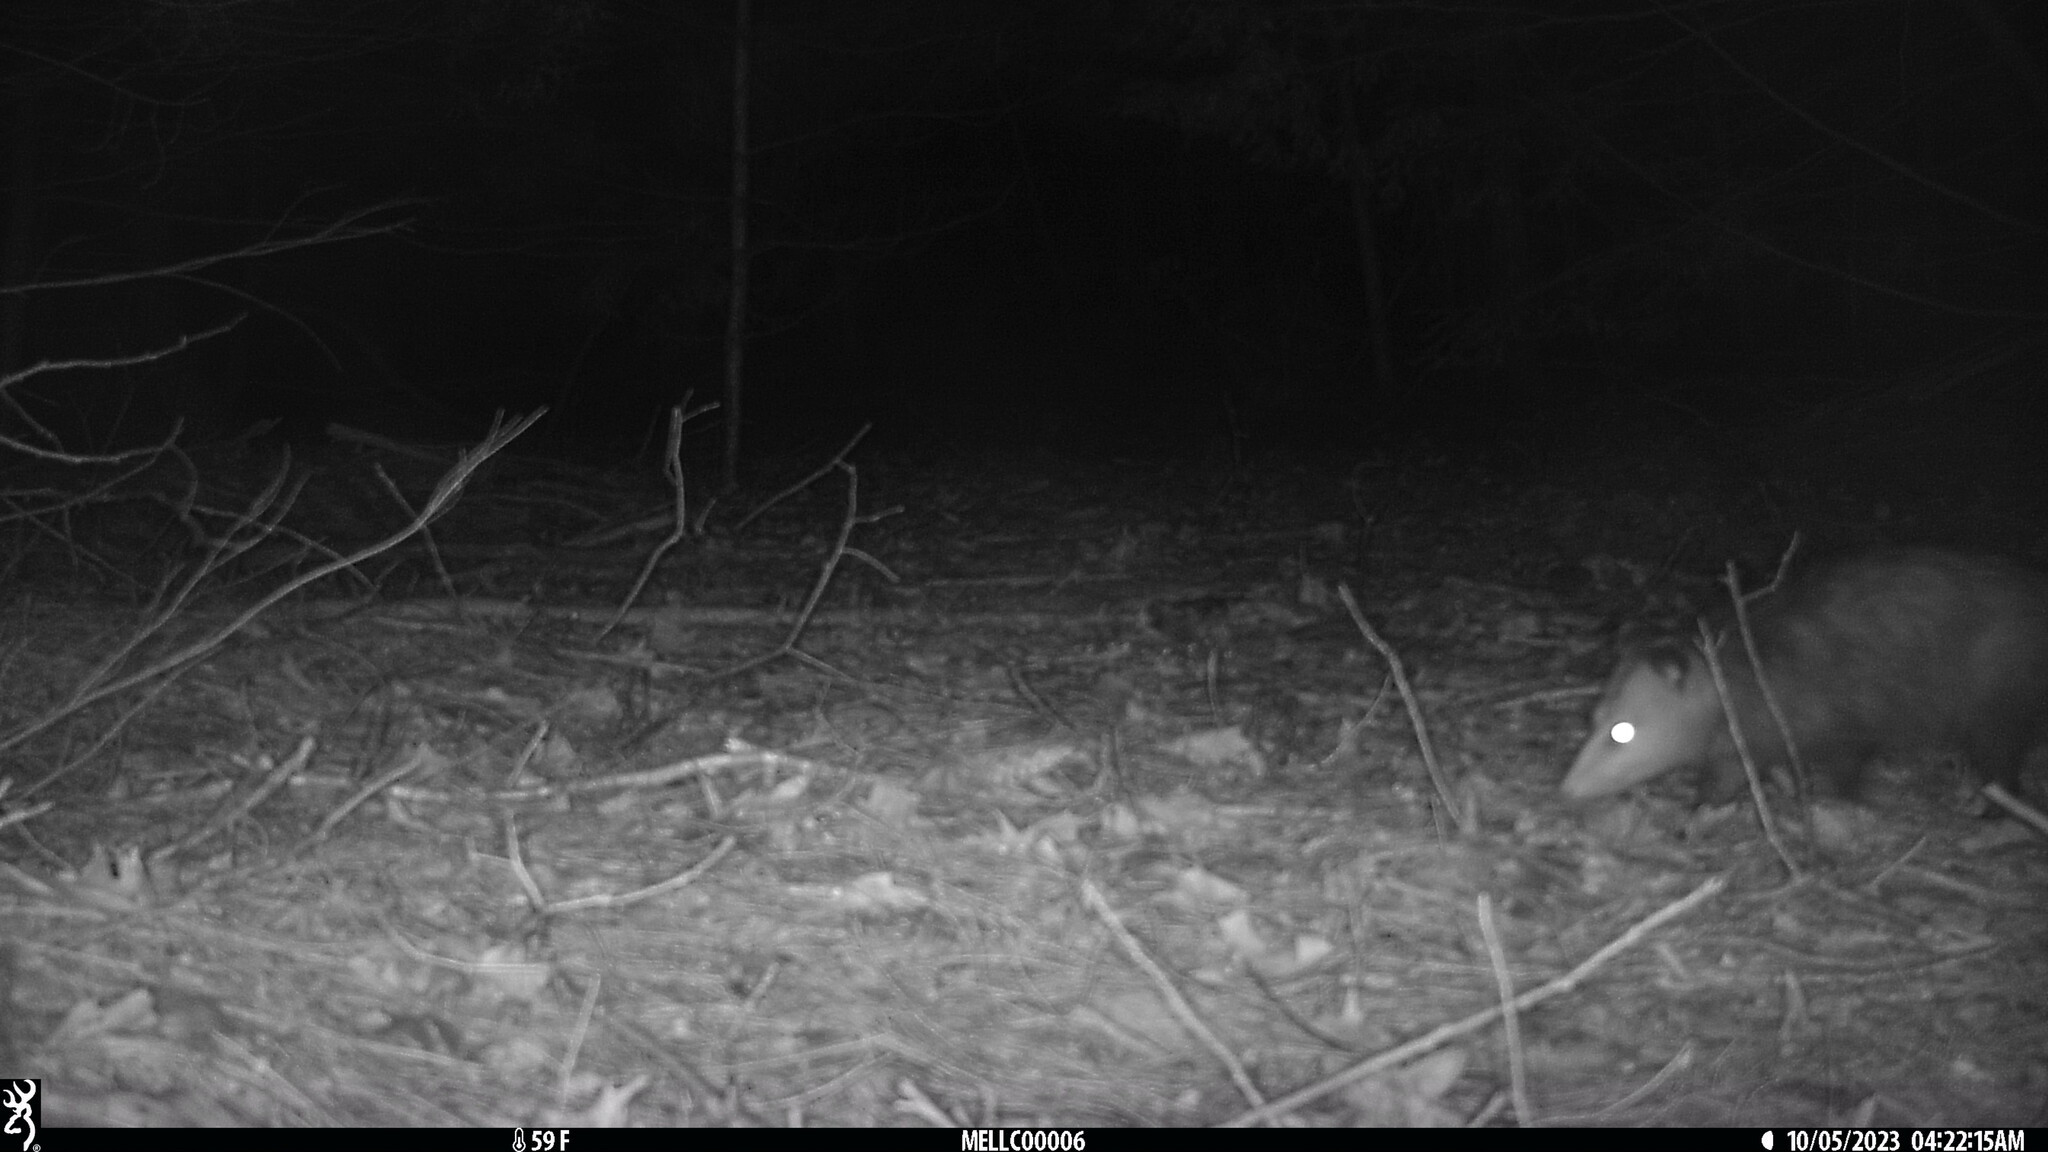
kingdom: Animalia
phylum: Chordata
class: Mammalia
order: Didelphimorphia
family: Didelphidae
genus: Didelphis
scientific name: Didelphis virginiana
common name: Virginia opossum
